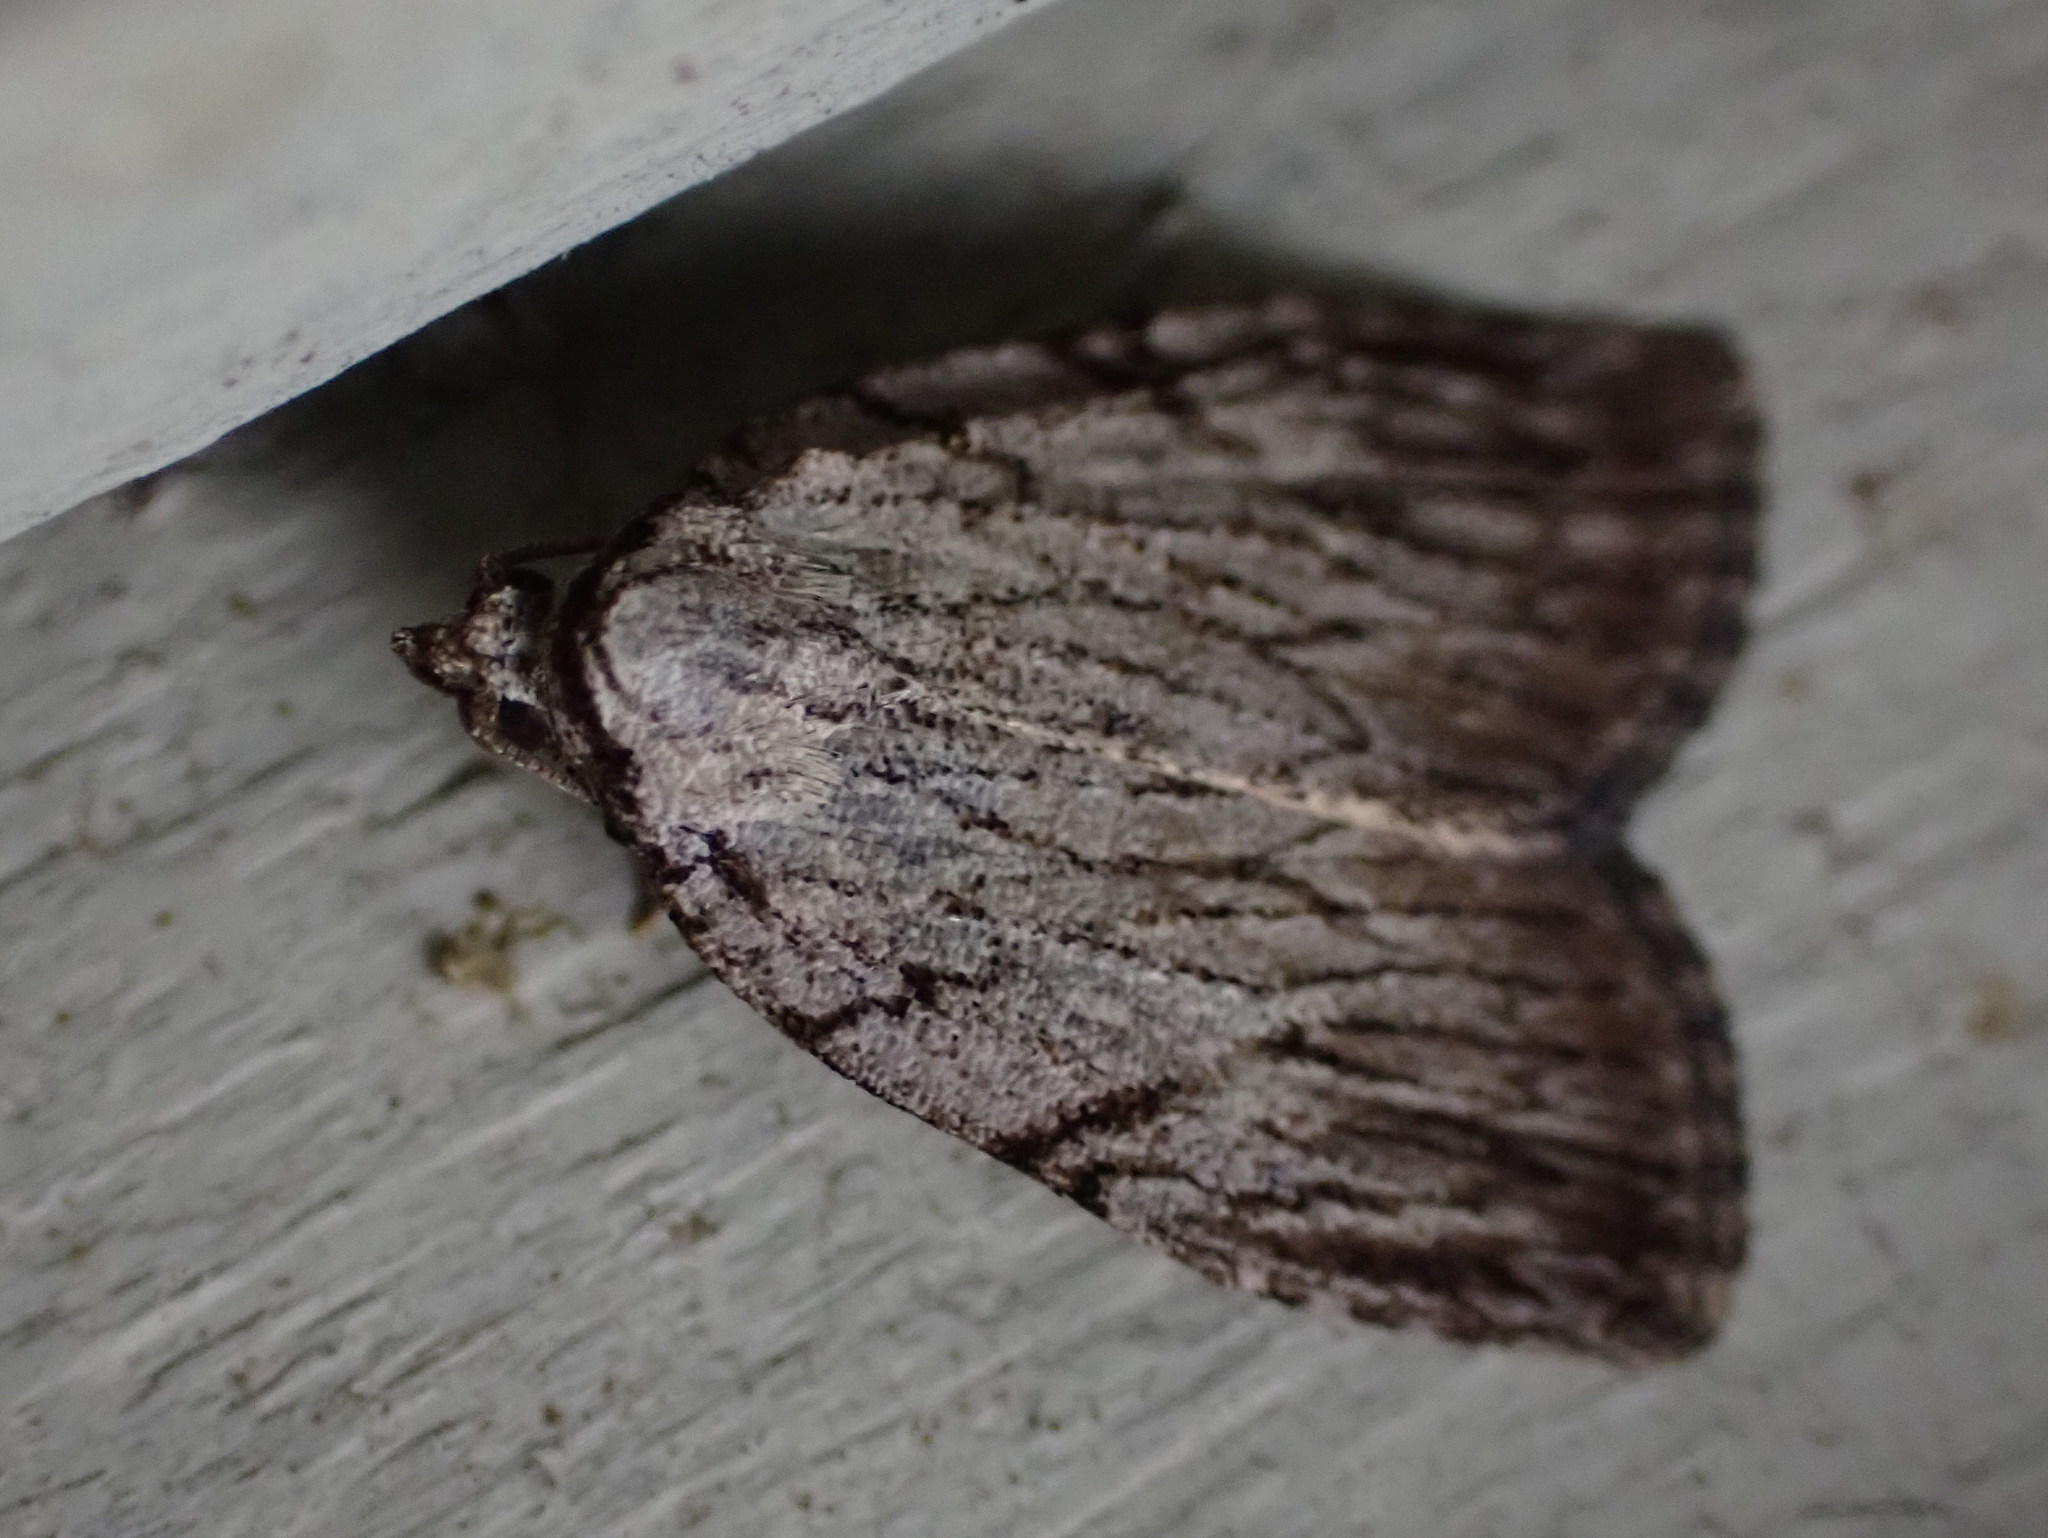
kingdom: Animalia
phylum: Arthropoda
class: Insecta
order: Lepidoptera
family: Noctuidae
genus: Balsa
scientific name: Balsa tristrigella
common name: Three-lined balsa moth
